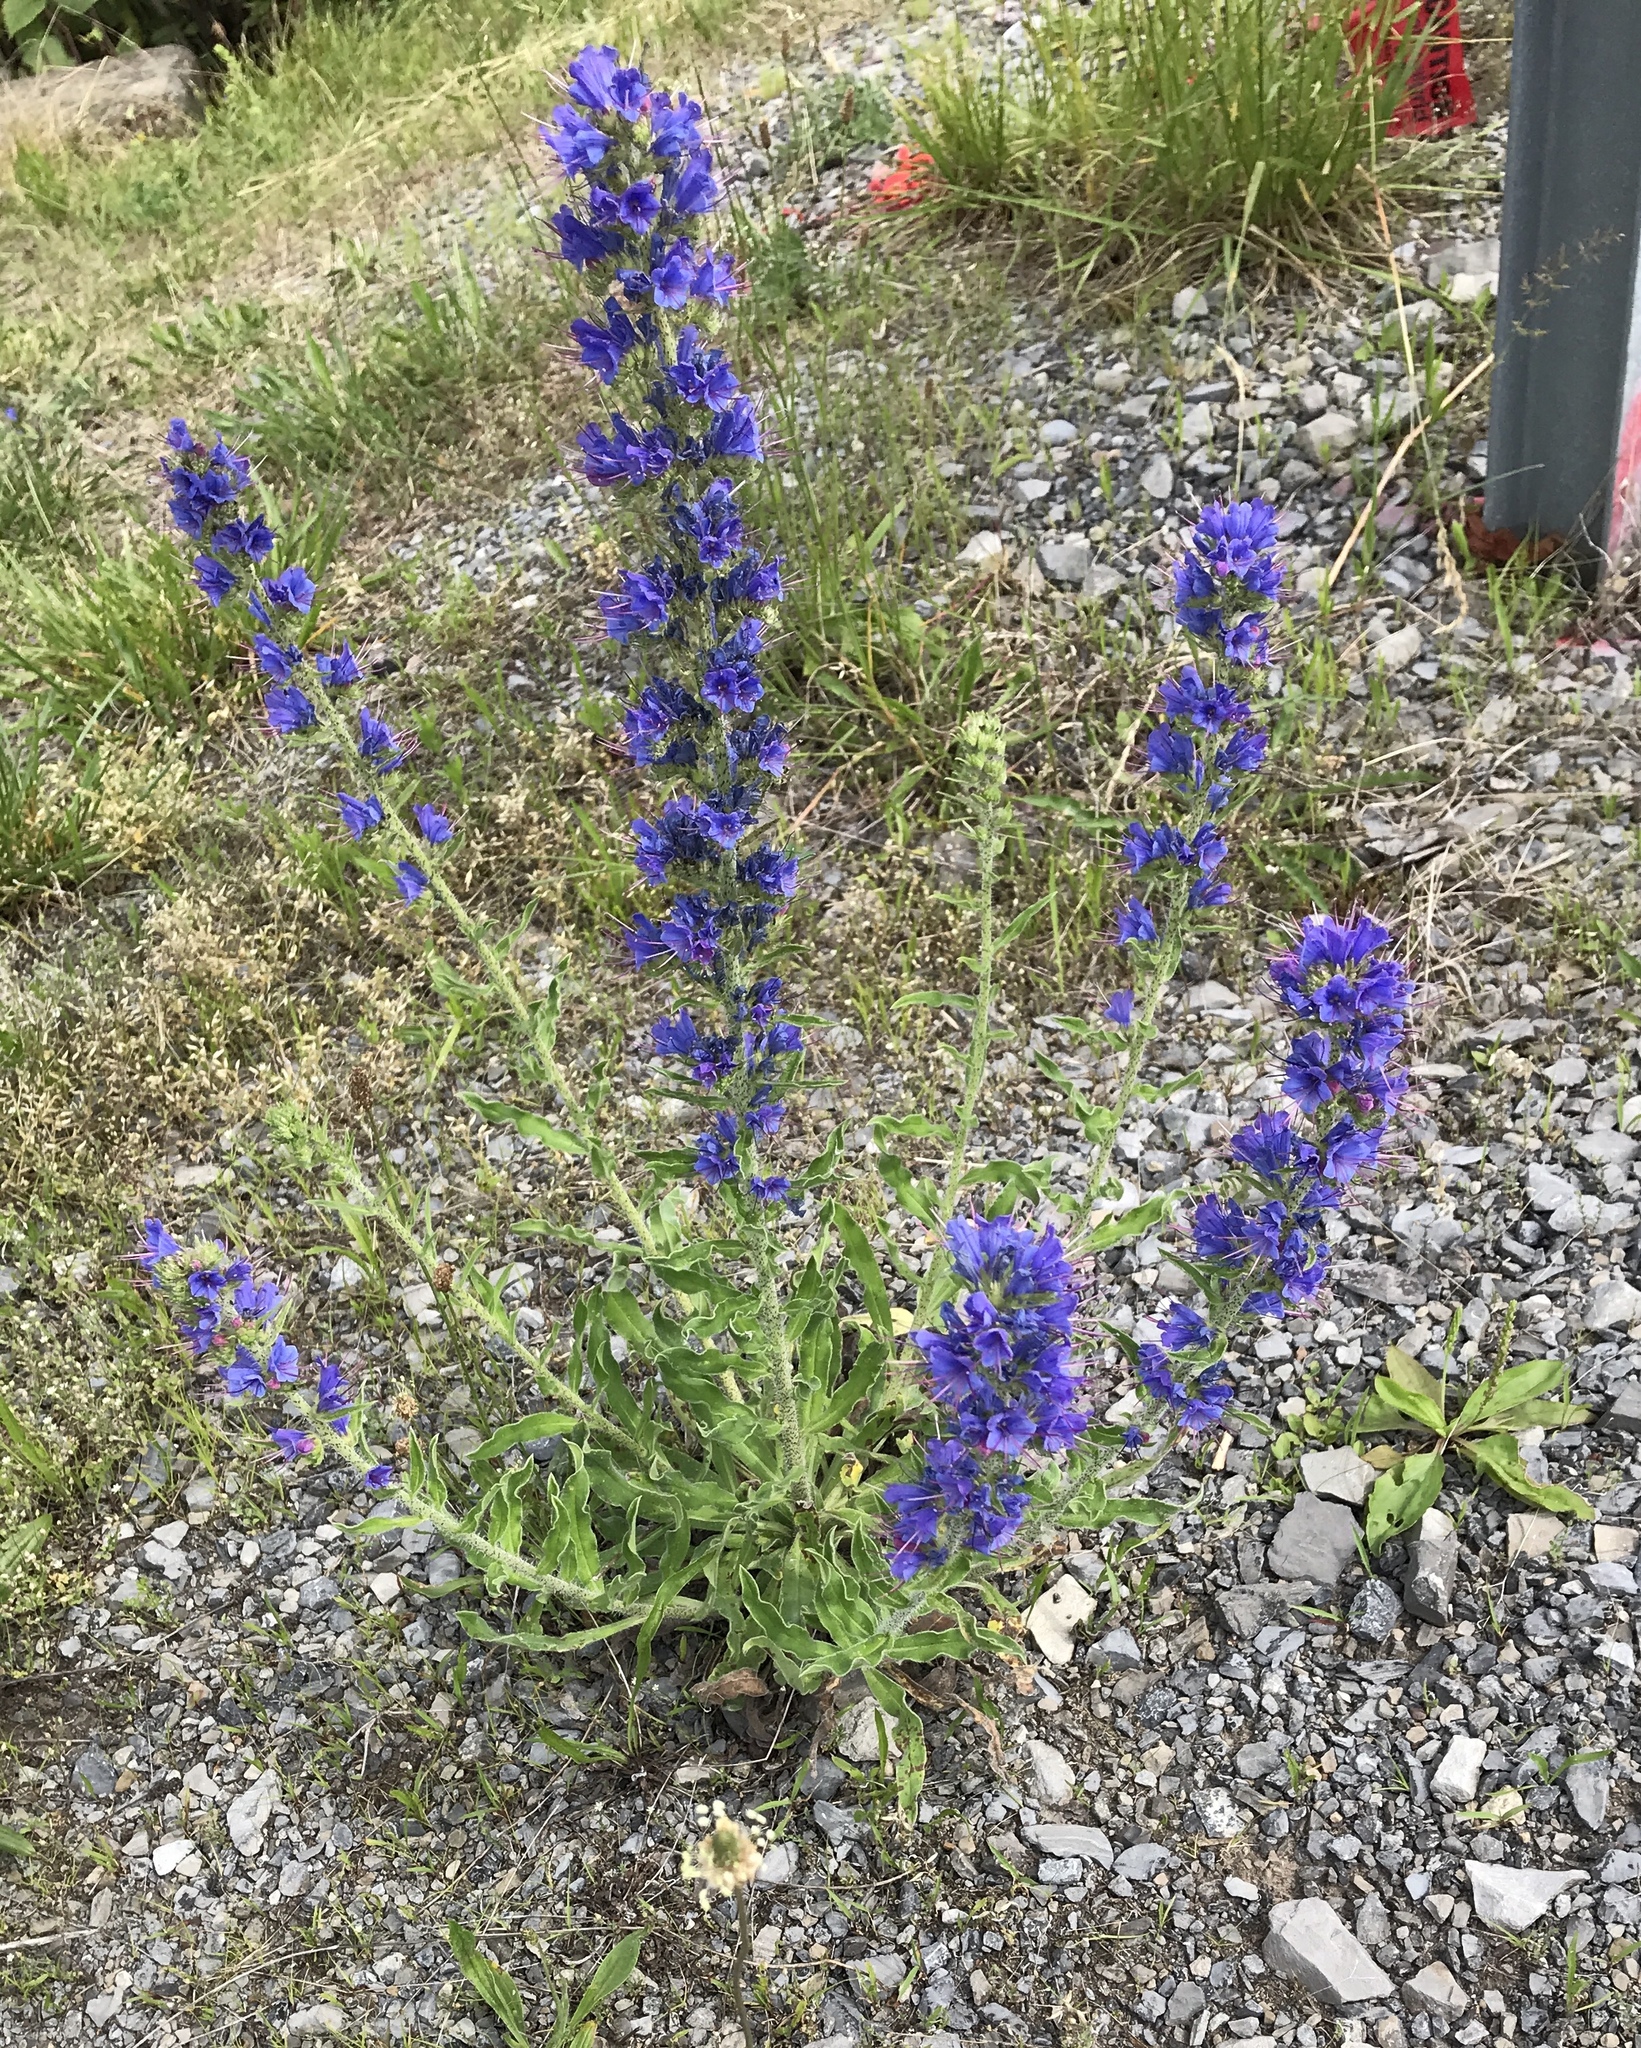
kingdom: Plantae
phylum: Tracheophyta
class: Magnoliopsida
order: Boraginales
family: Boraginaceae
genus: Echium
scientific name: Echium vulgare
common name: Common viper's bugloss
